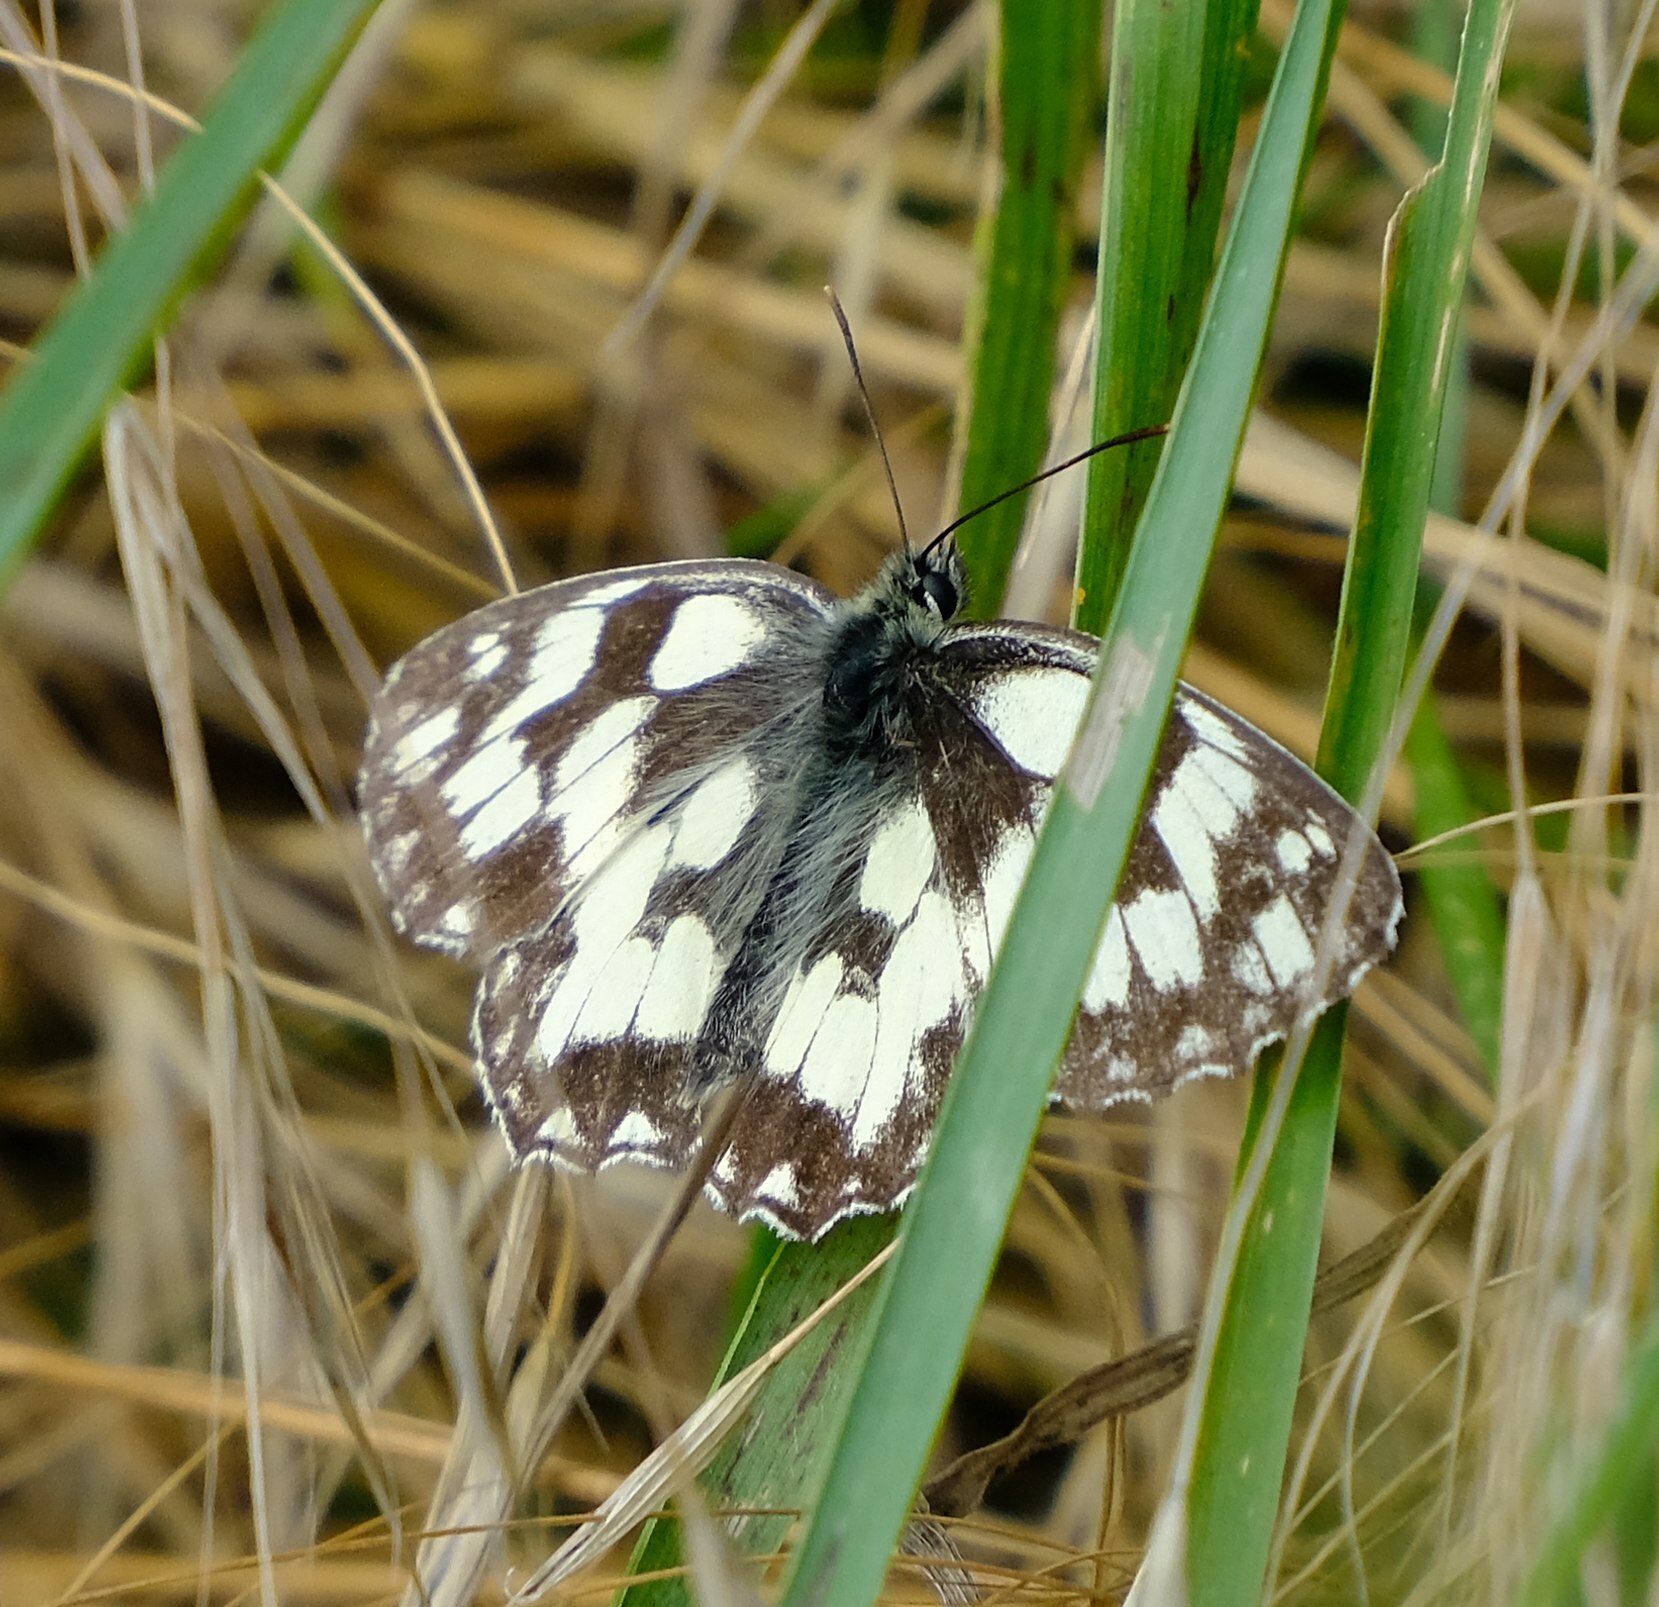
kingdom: Animalia
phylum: Arthropoda
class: Insecta
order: Lepidoptera
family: Nymphalidae
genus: Melanargia
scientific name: Melanargia galathea
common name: Marbled white
